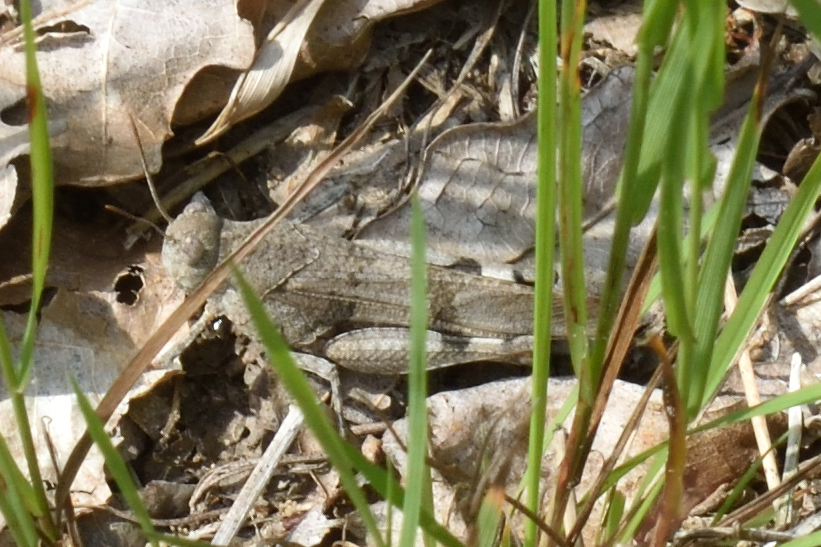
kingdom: Animalia
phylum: Arthropoda
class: Insecta
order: Orthoptera
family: Acrididae
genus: Oedipoda
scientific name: Oedipoda caerulescens
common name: Blue-winged grasshopper
